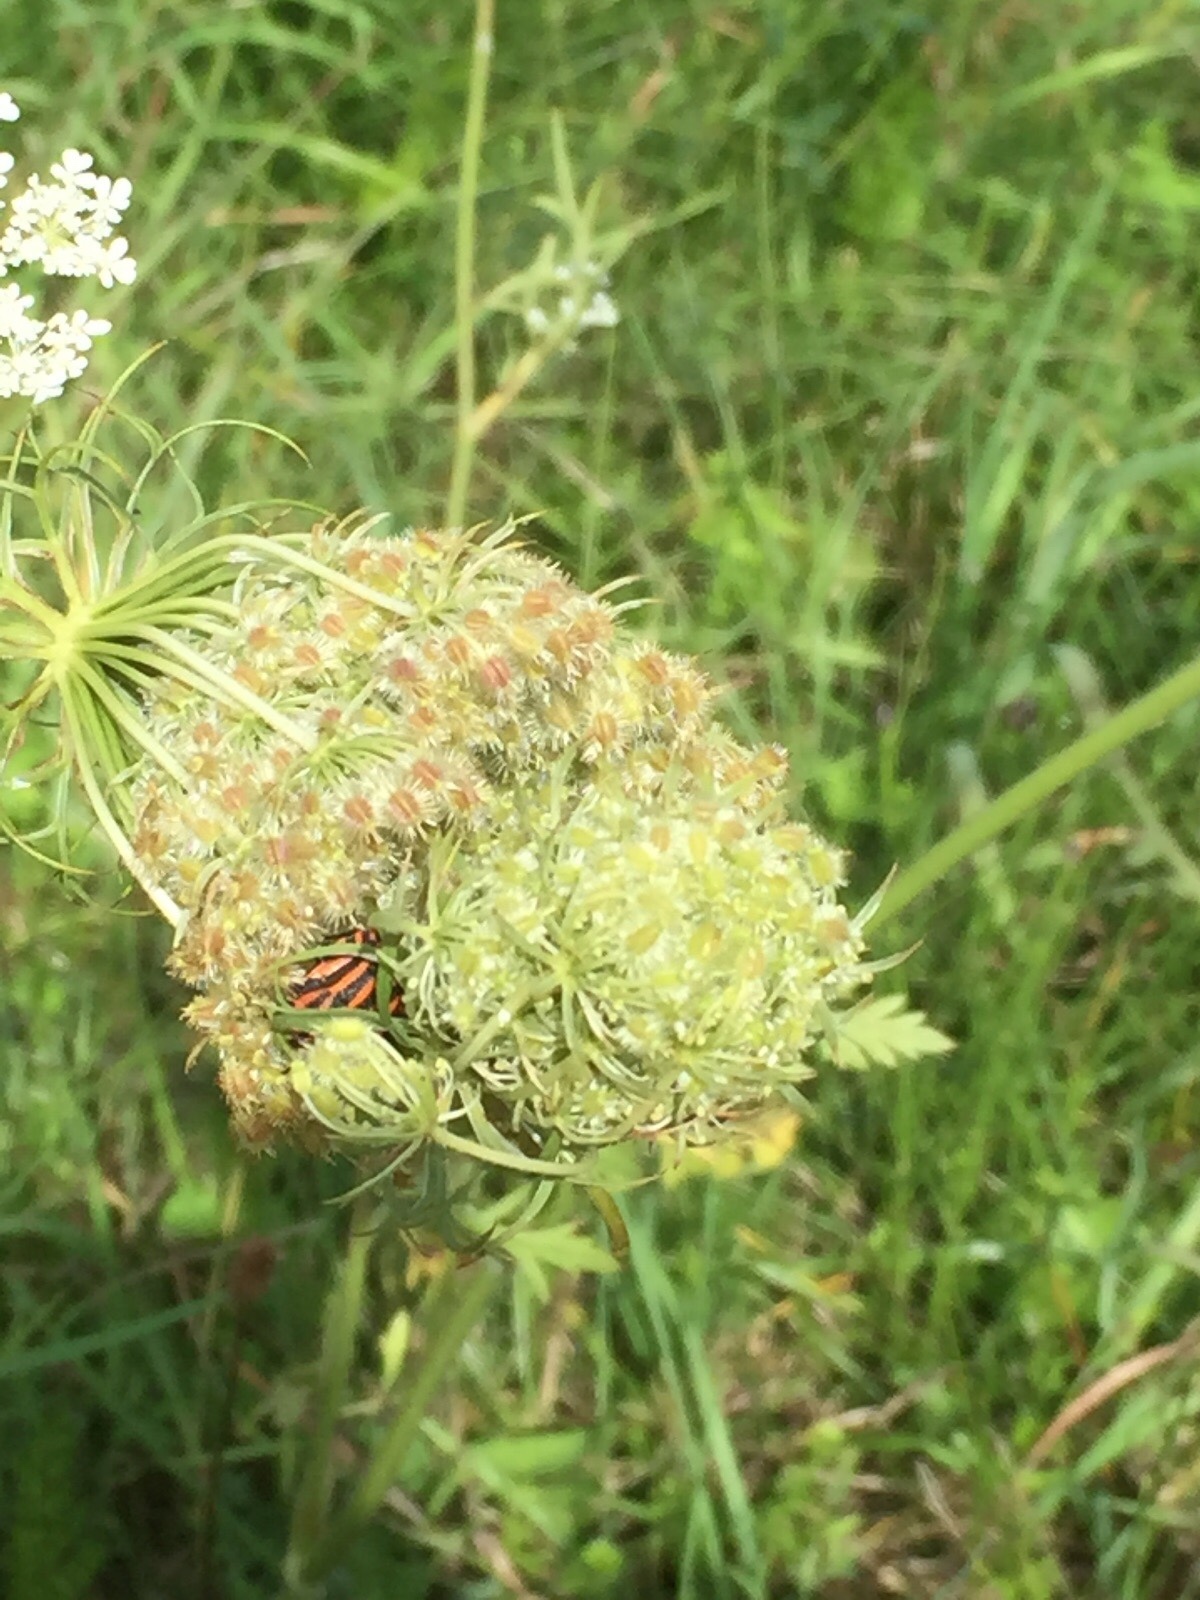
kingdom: Plantae
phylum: Tracheophyta
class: Magnoliopsida
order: Apiales
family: Apiaceae
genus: Daucus
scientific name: Daucus carota
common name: Wild carrot
